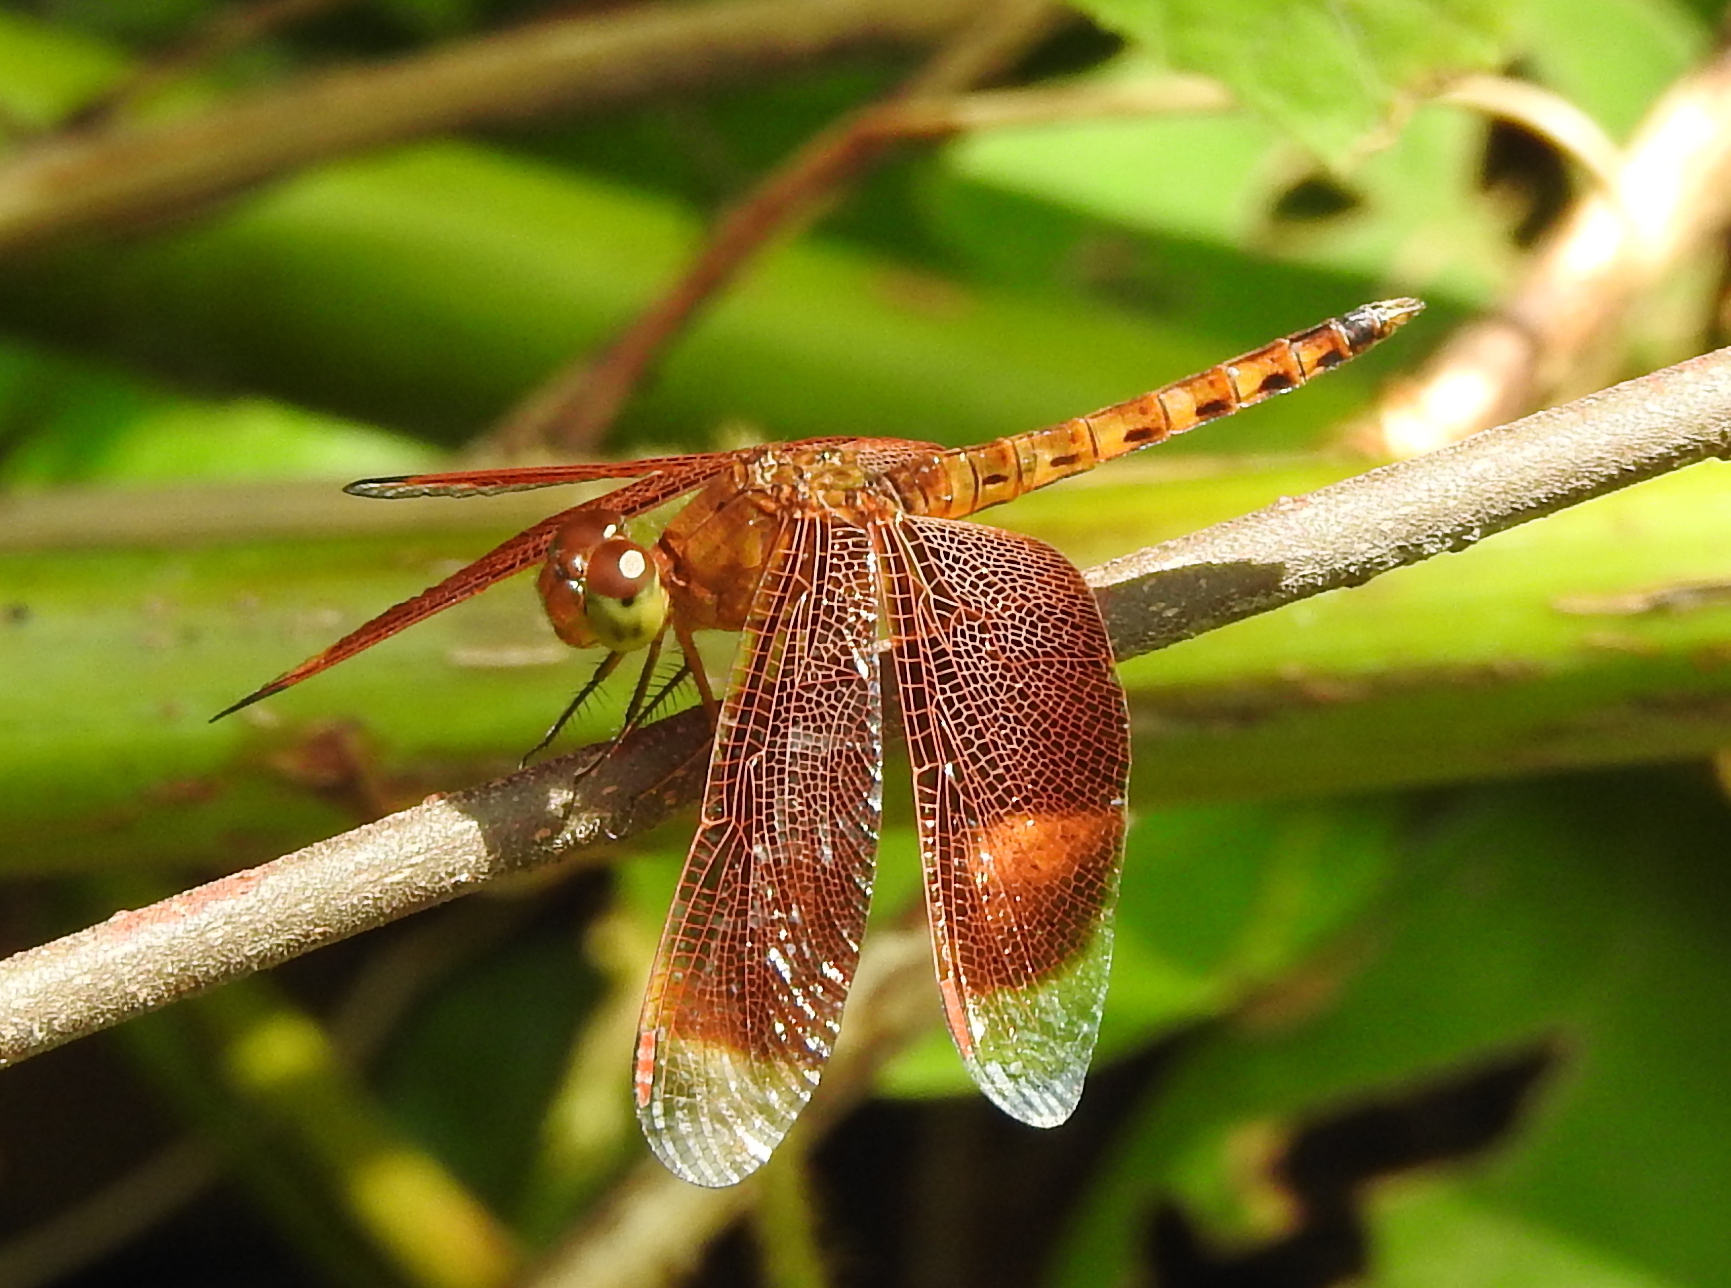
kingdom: Animalia
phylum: Arthropoda
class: Insecta
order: Odonata
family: Libellulidae
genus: Neurothemis
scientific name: Neurothemis fluctuans
